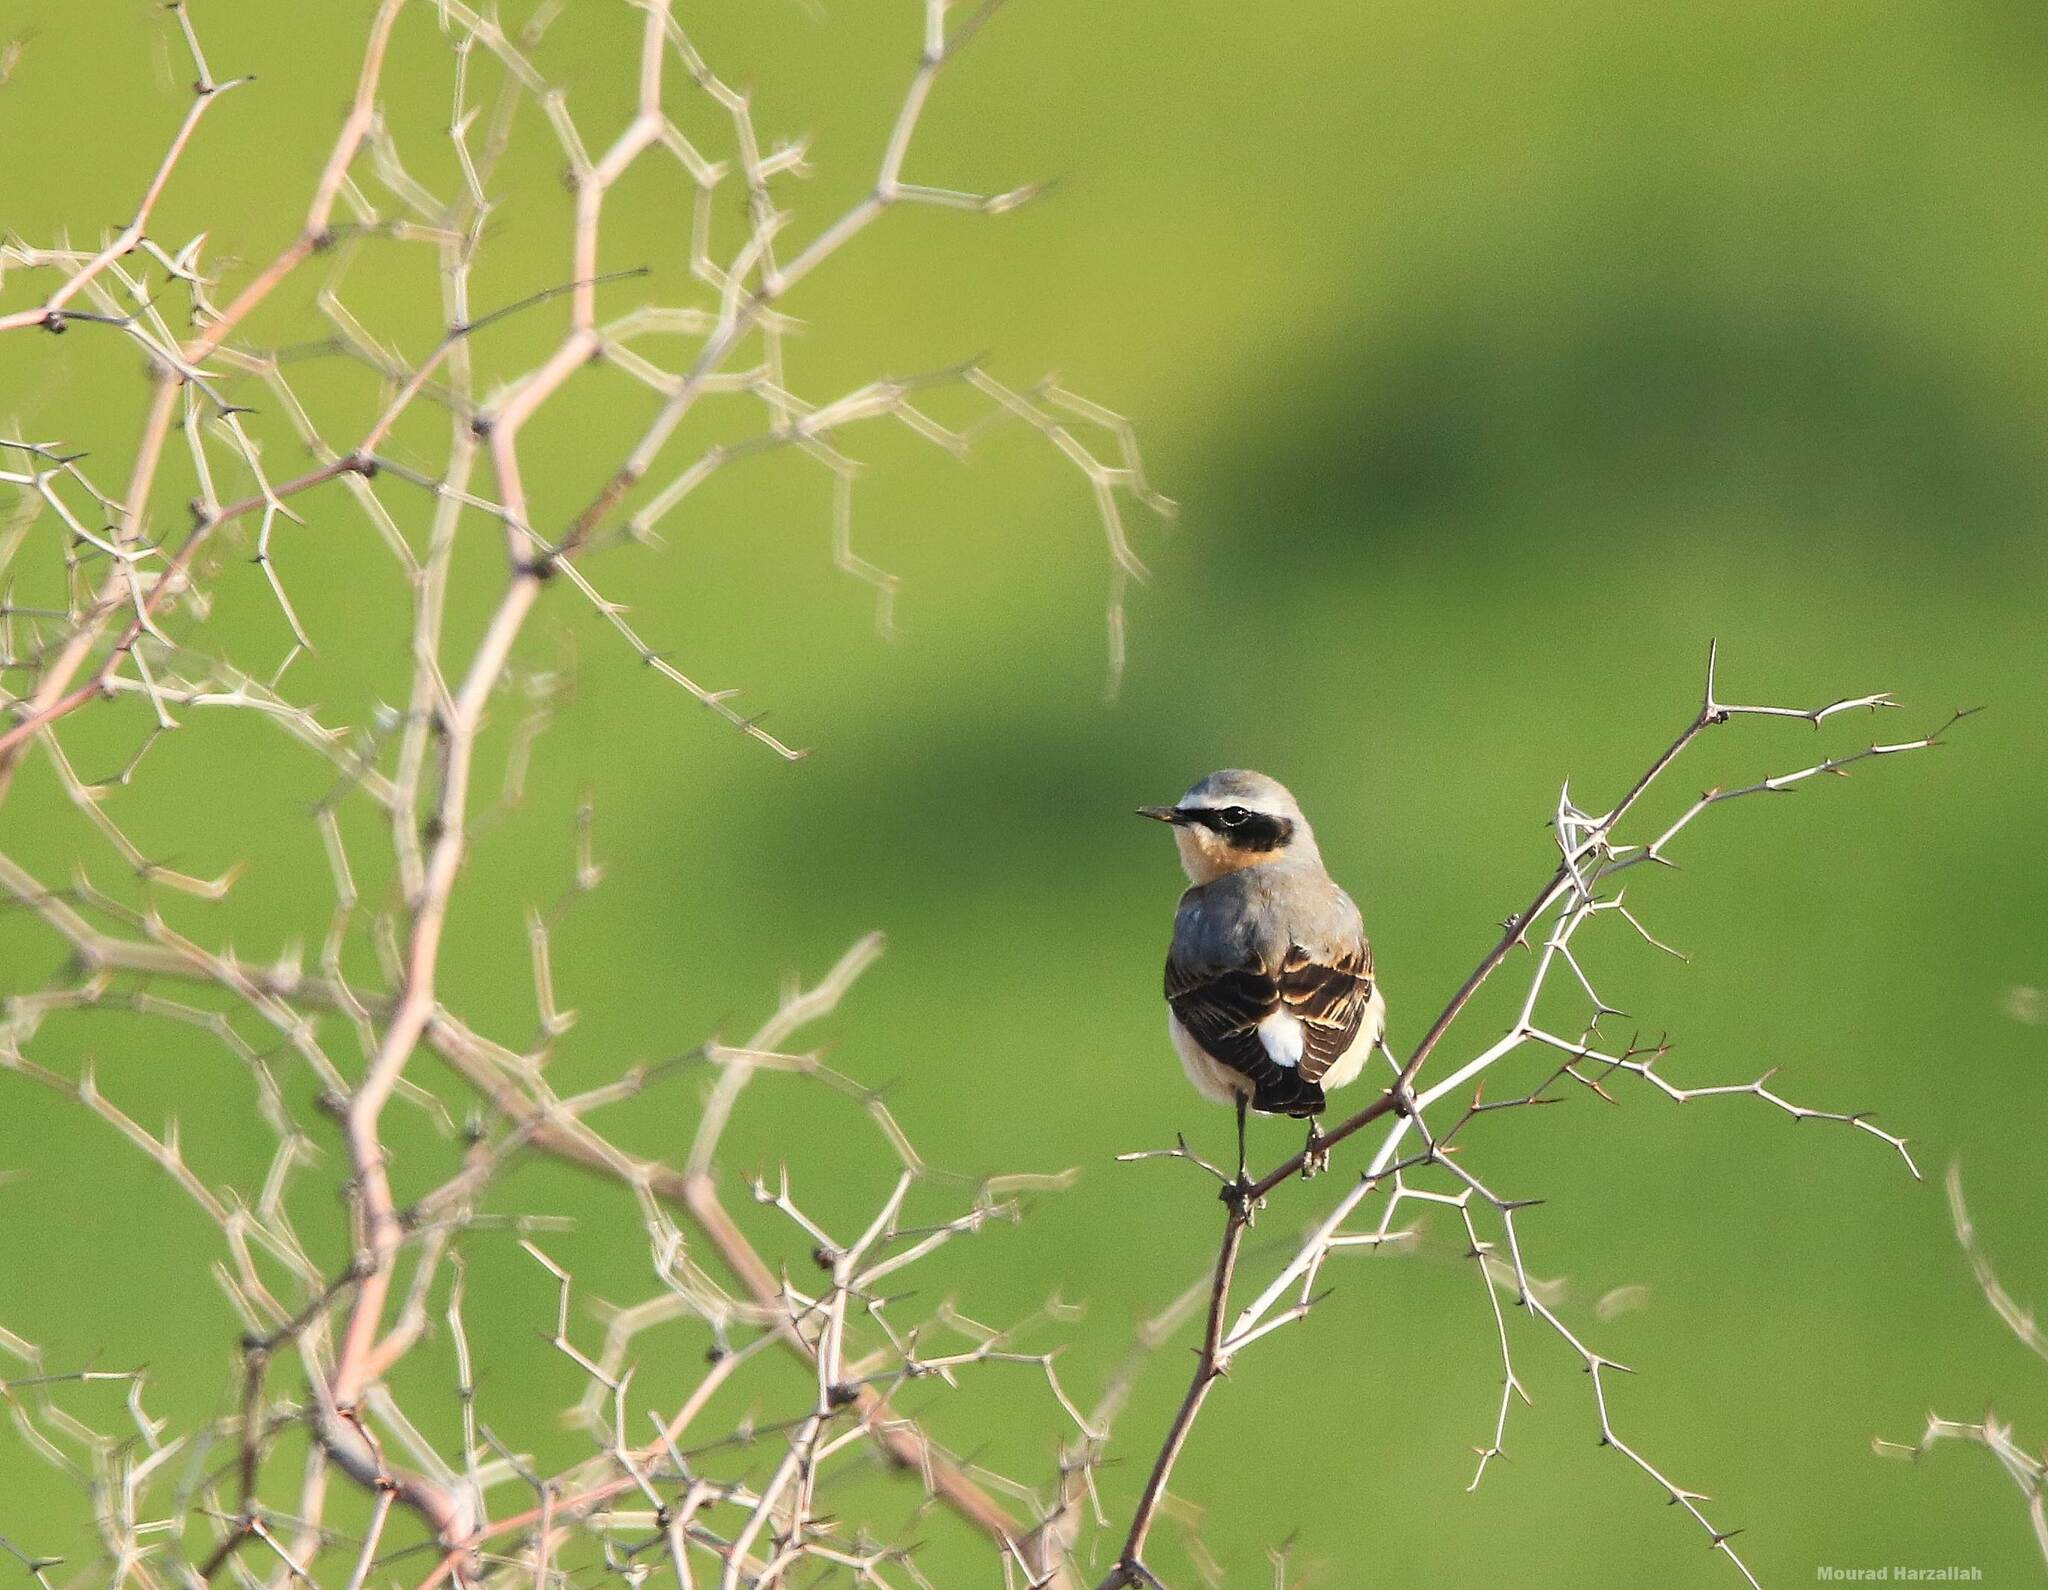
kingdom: Animalia
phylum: Chordata
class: Aves
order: Passeriformes
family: Muscicapidae
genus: Oenanthe
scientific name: Oenanthe oenanthe
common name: Northern wheatear
